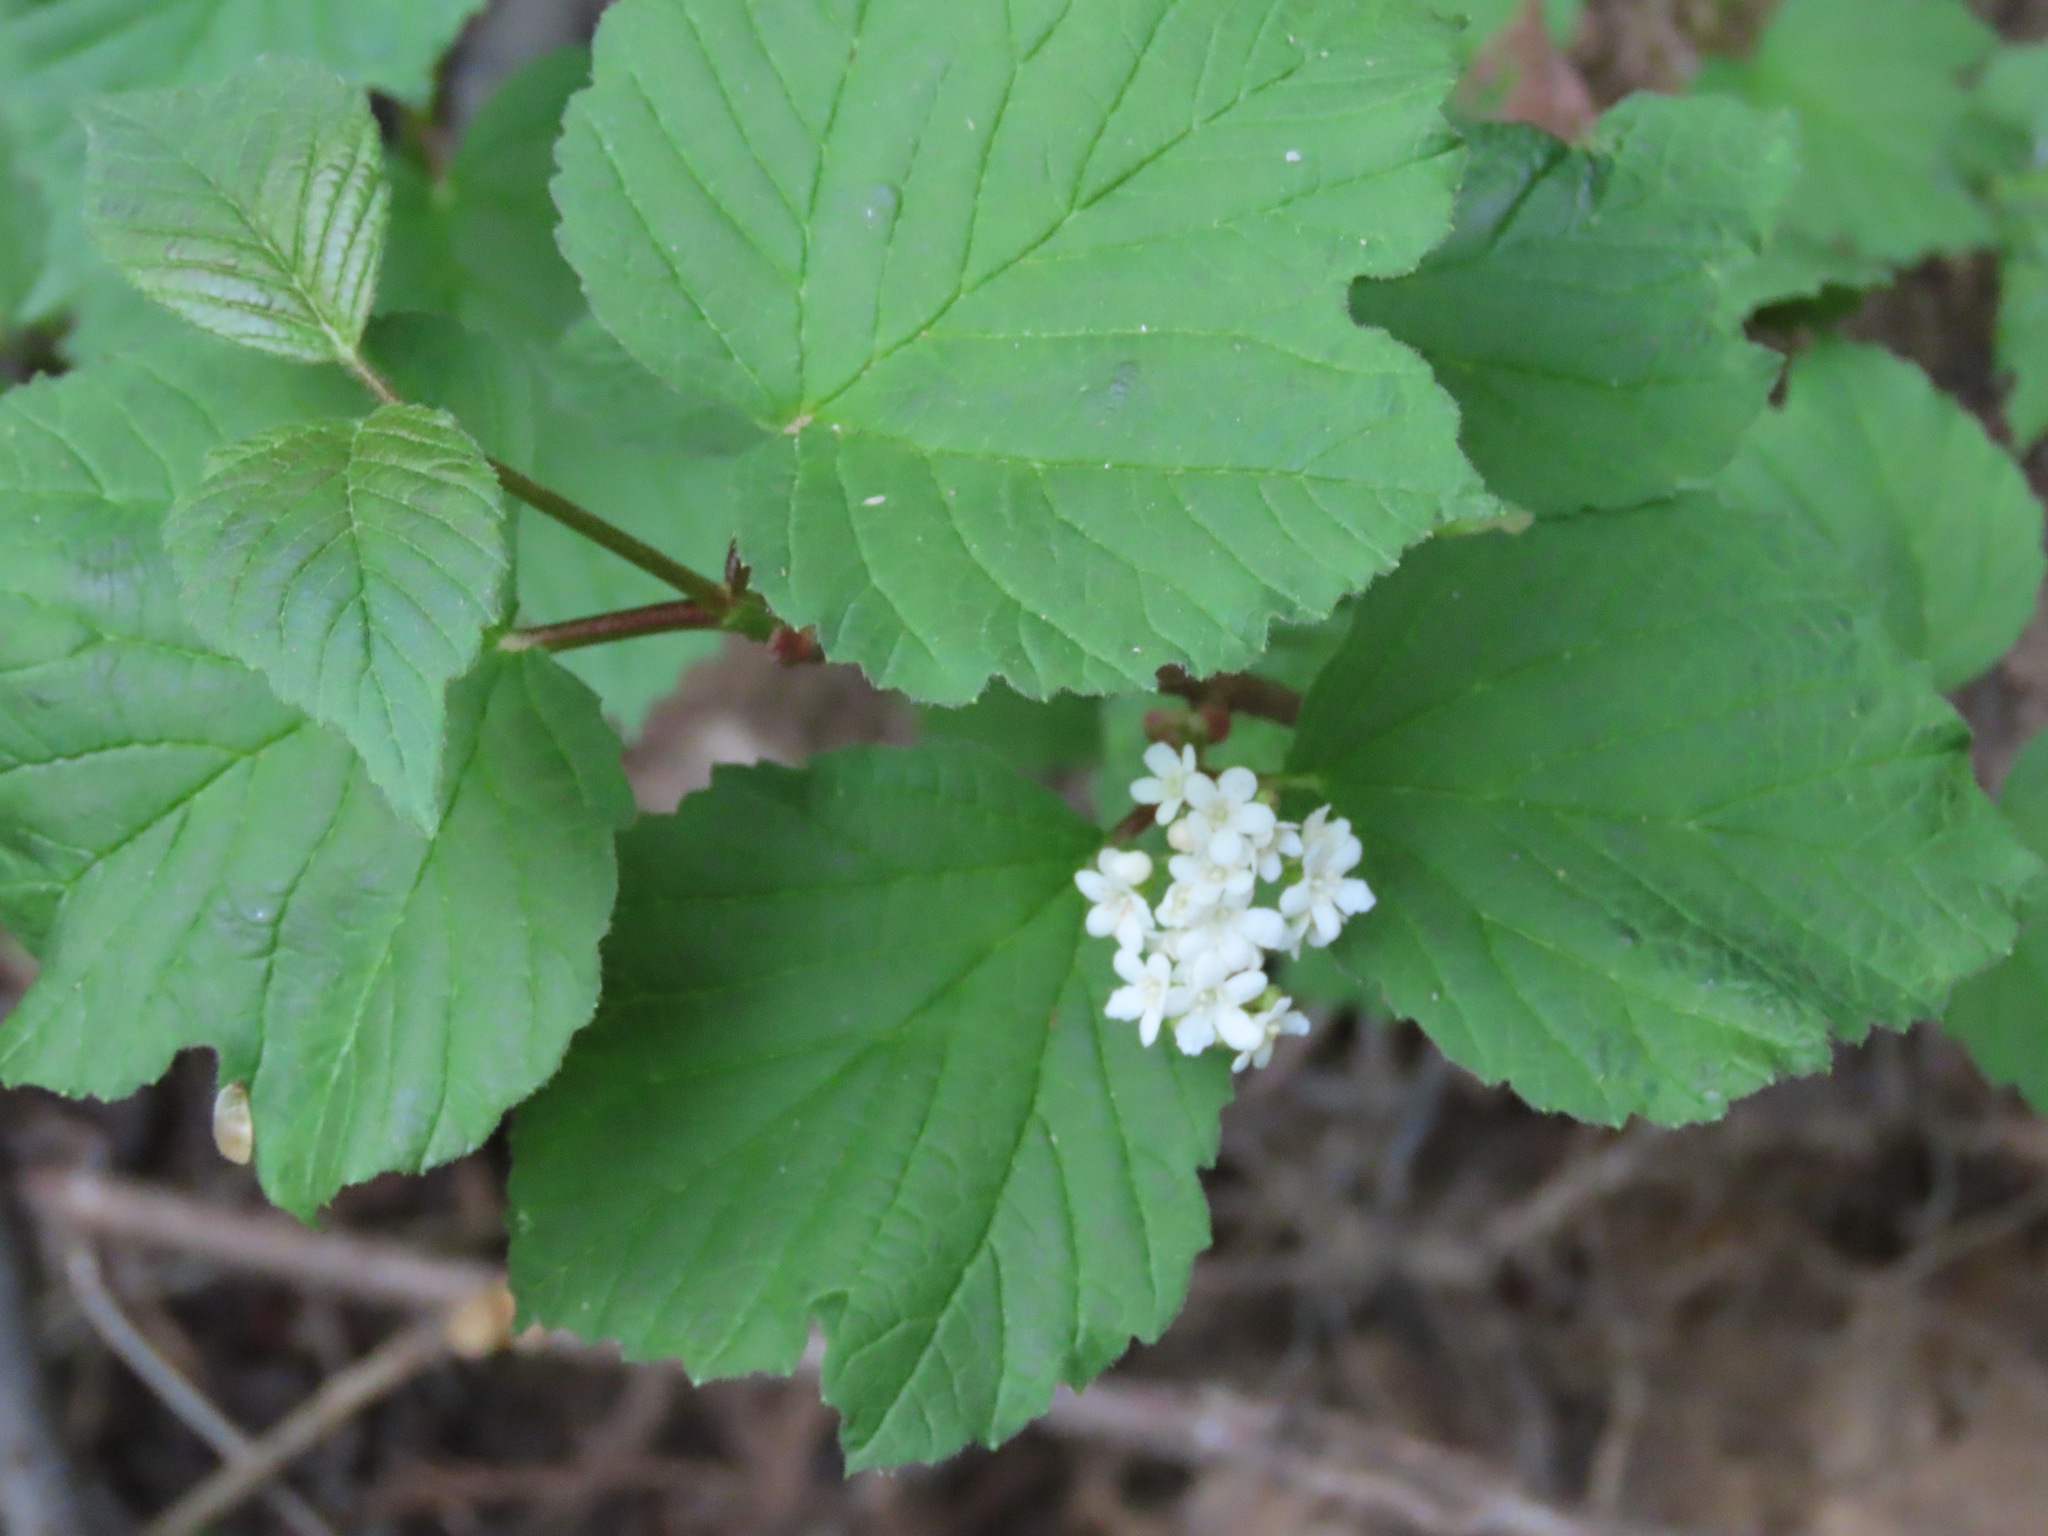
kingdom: Plantae
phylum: Tracheophyta
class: Magnoliopsida
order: Dipsacales
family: Viburnaceae
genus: Viburnum
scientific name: Viburnum edule
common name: Mooseberry
